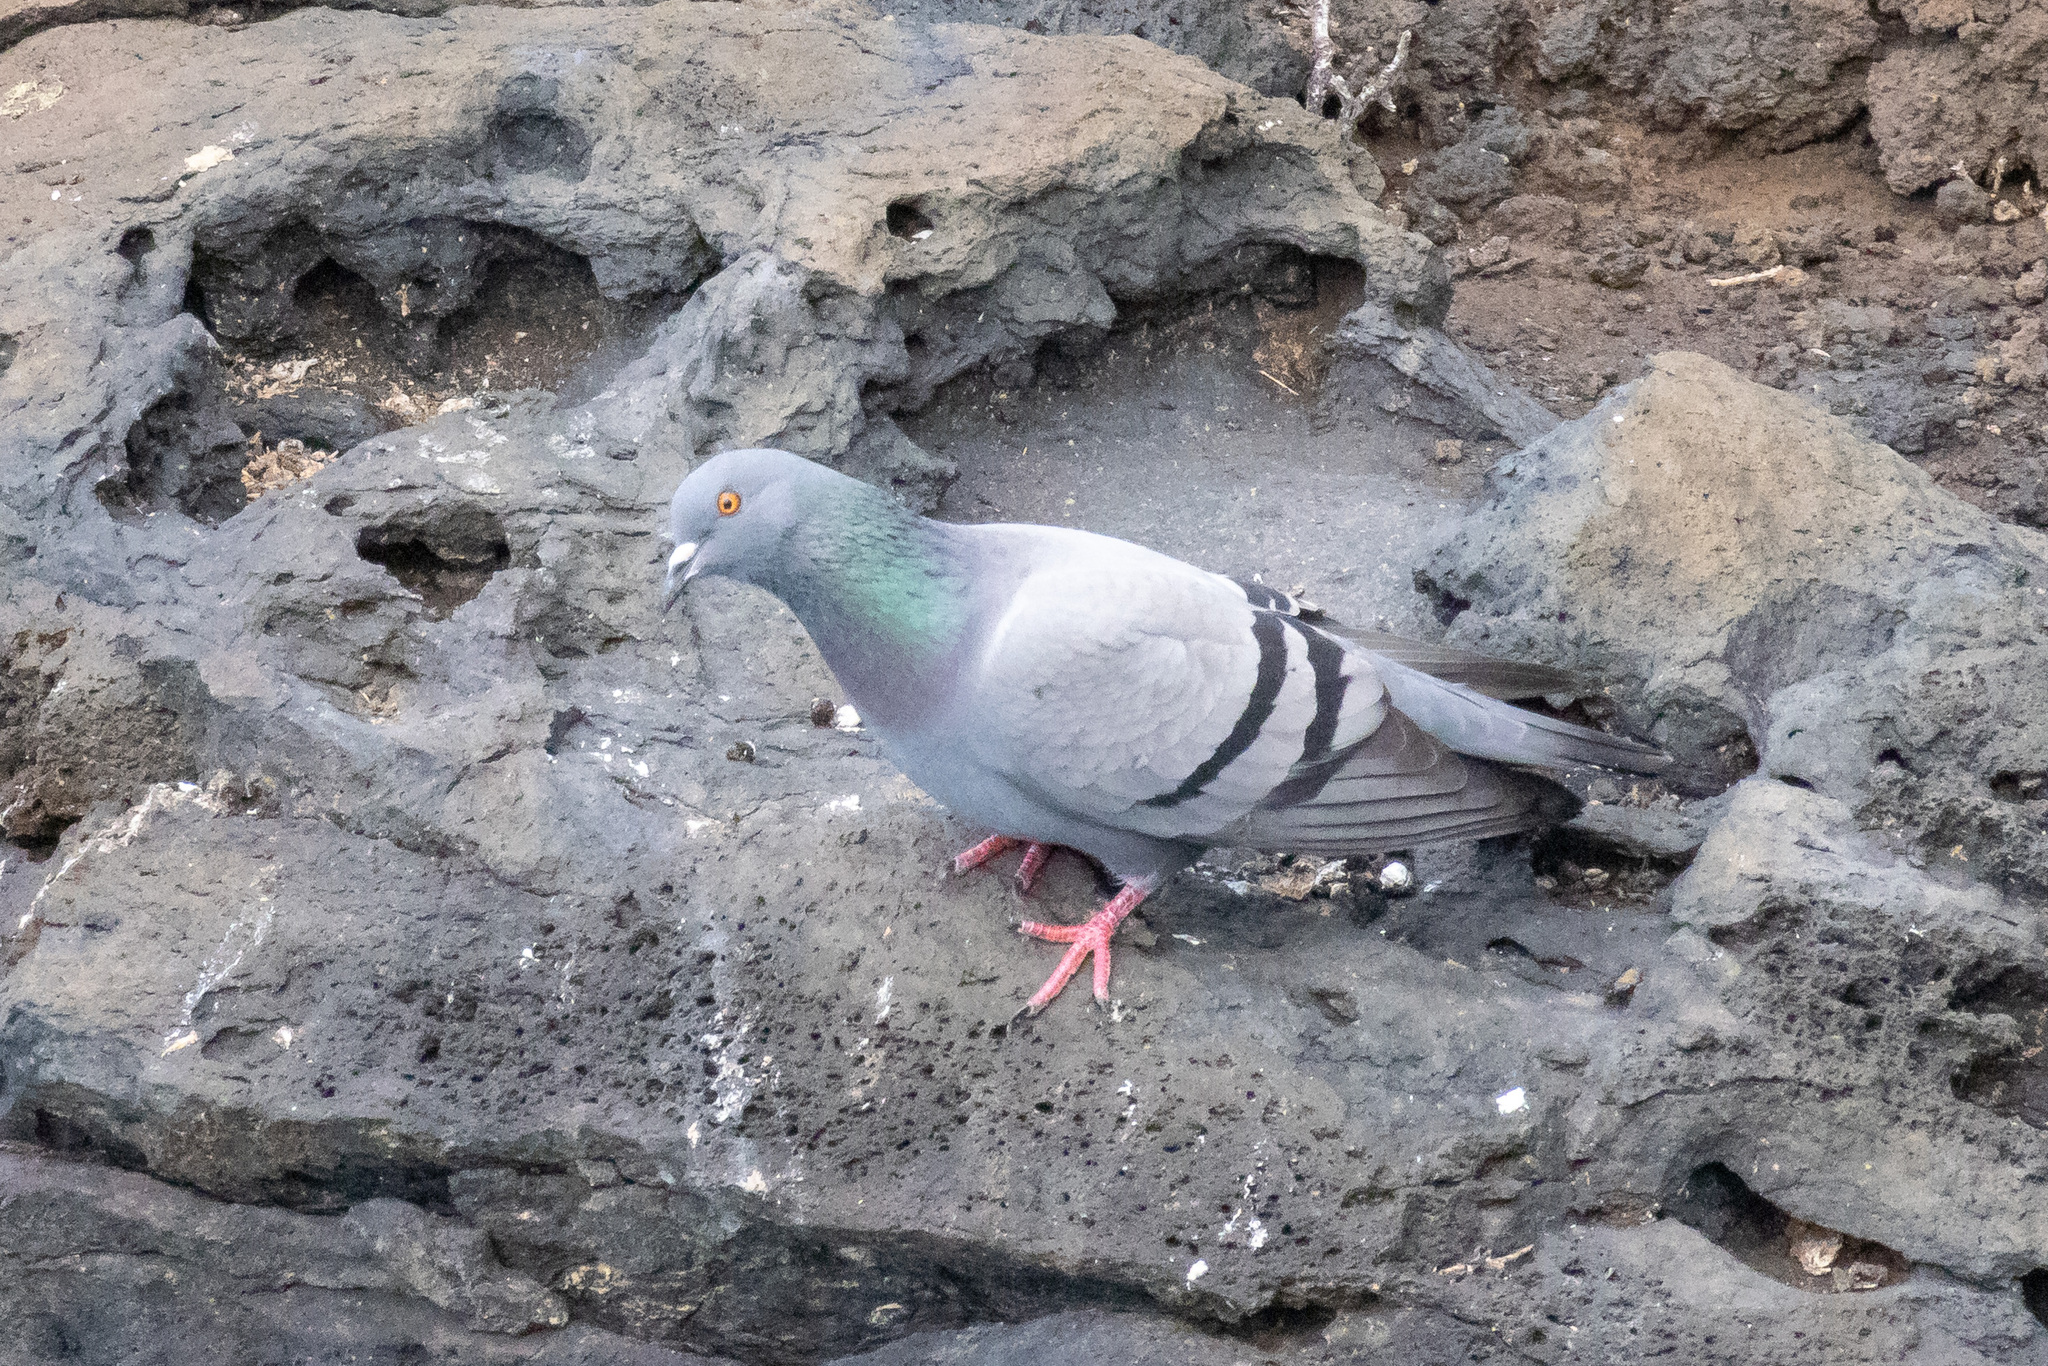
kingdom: Animalia
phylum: Chordata
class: Aves
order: Columbiformes
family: Columbidae
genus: Columba
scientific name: Columba livia
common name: Rock pigeon
